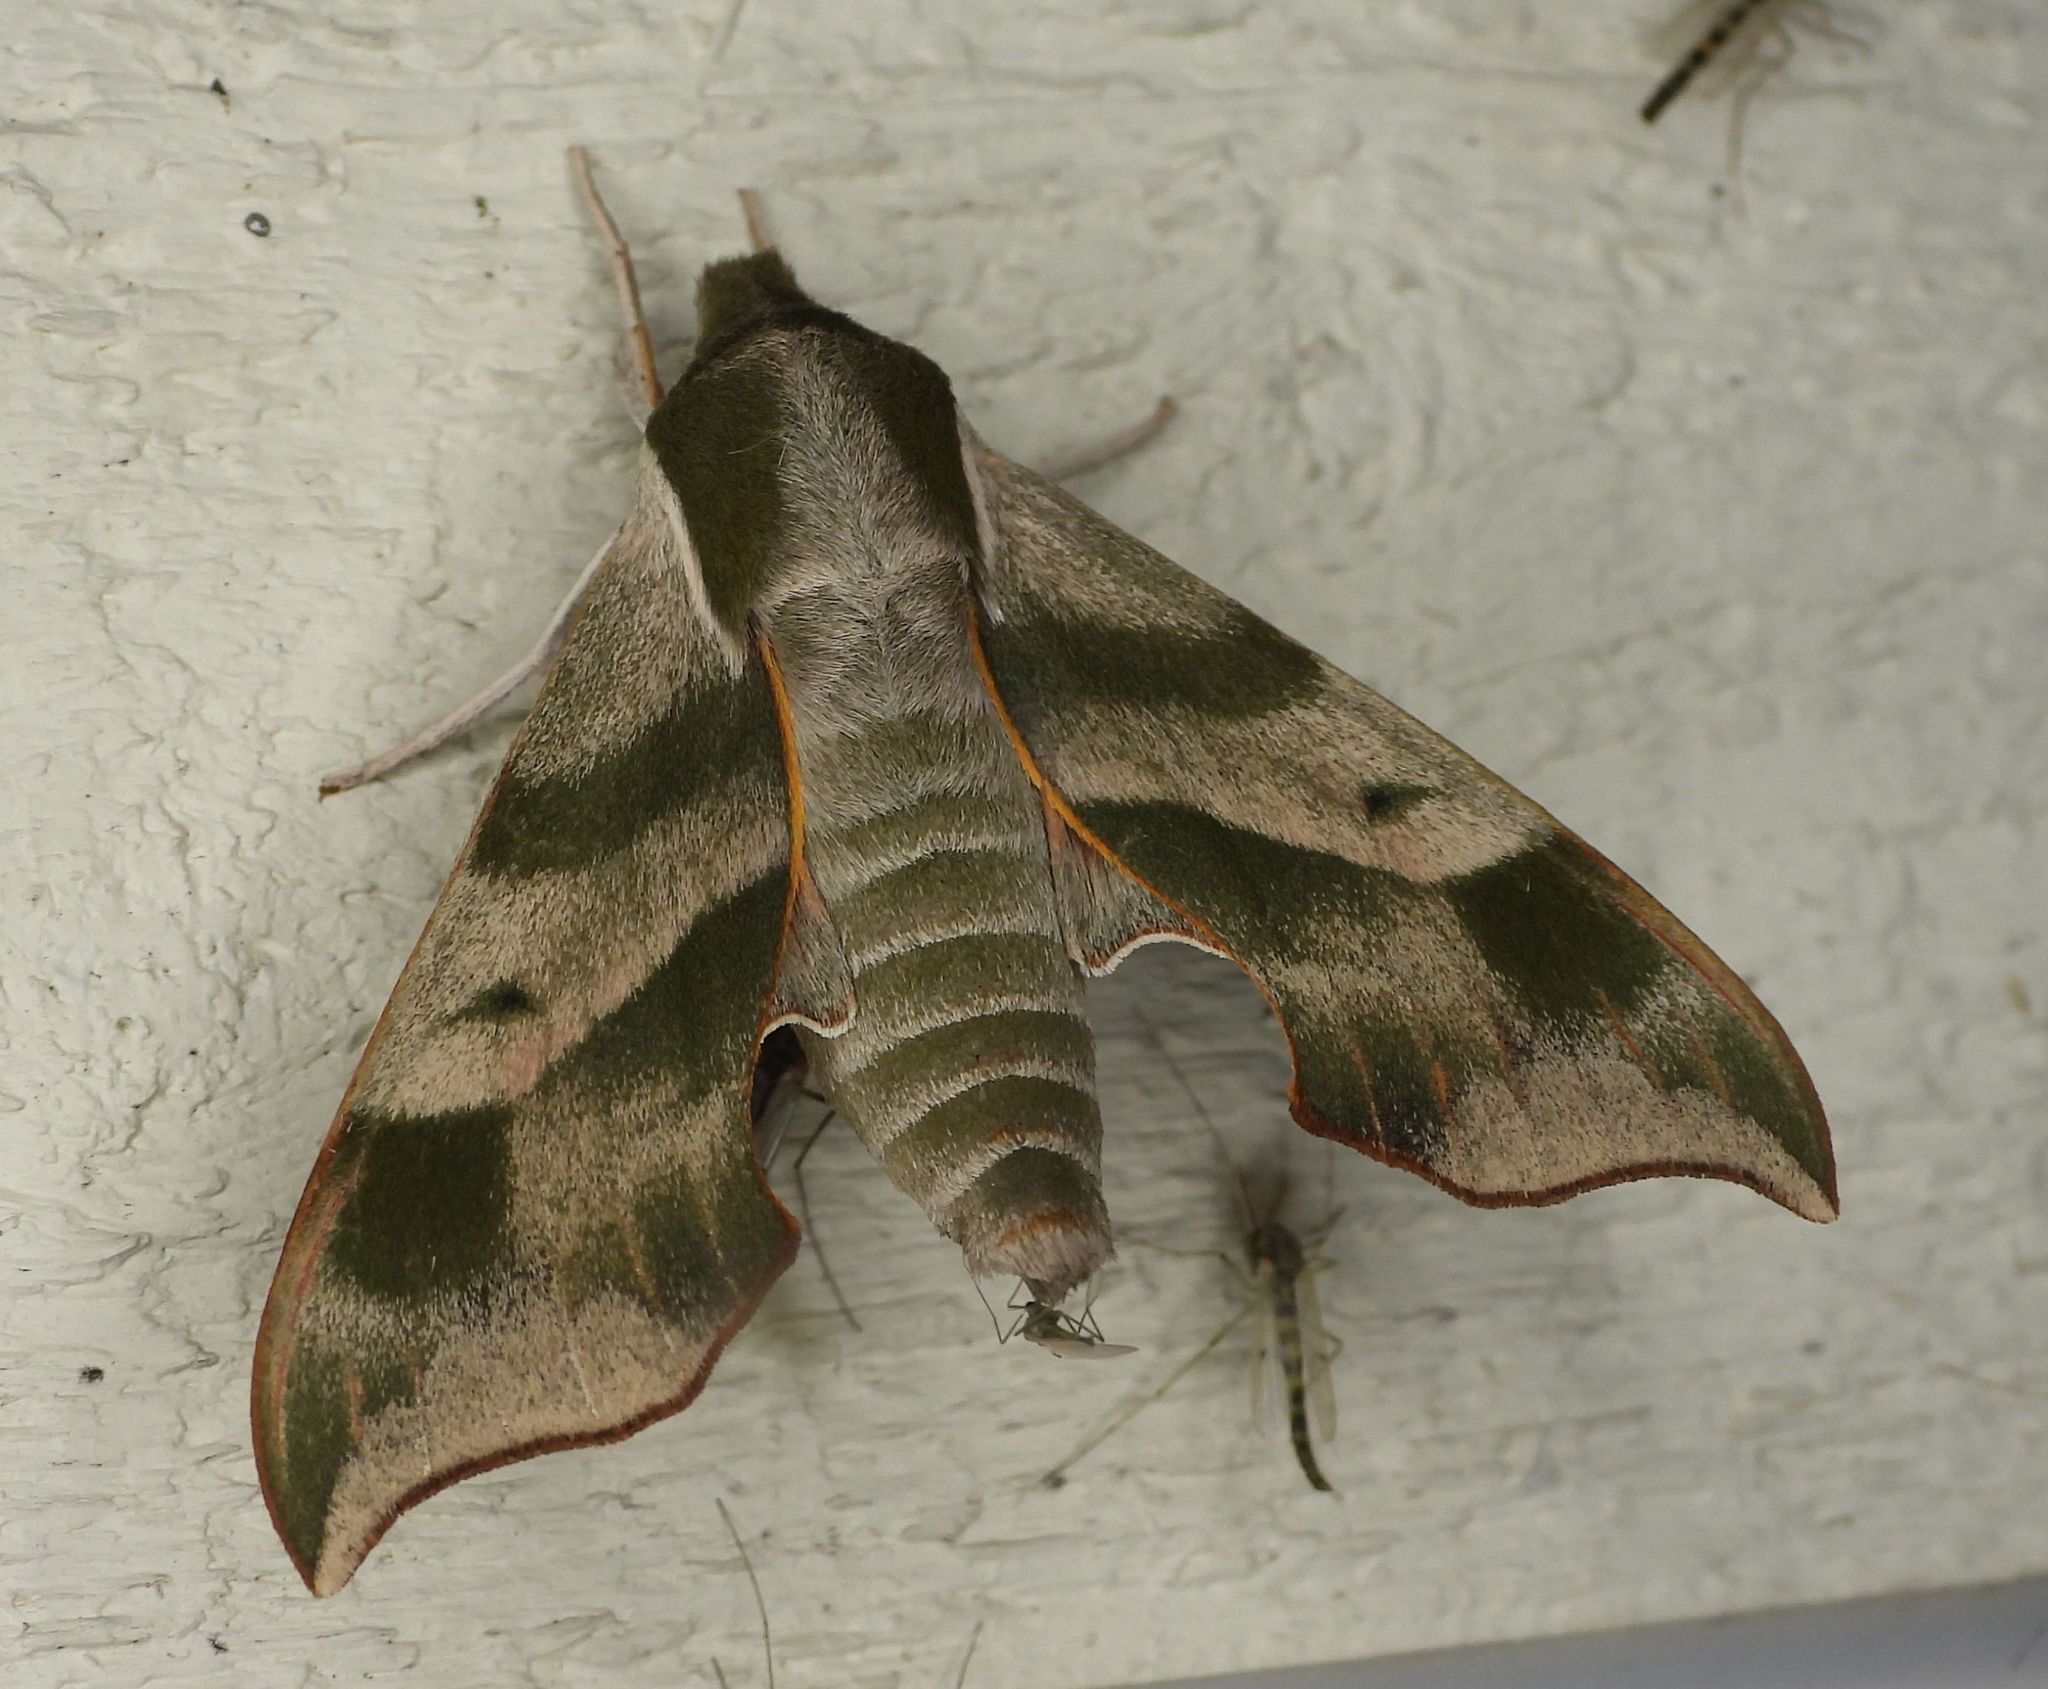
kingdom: Animalia
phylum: Arthropoda
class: Insecta
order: Lepidoptera
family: Sphingidae
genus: Darapsa
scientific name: Darapsa myron
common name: Hog sphinx
